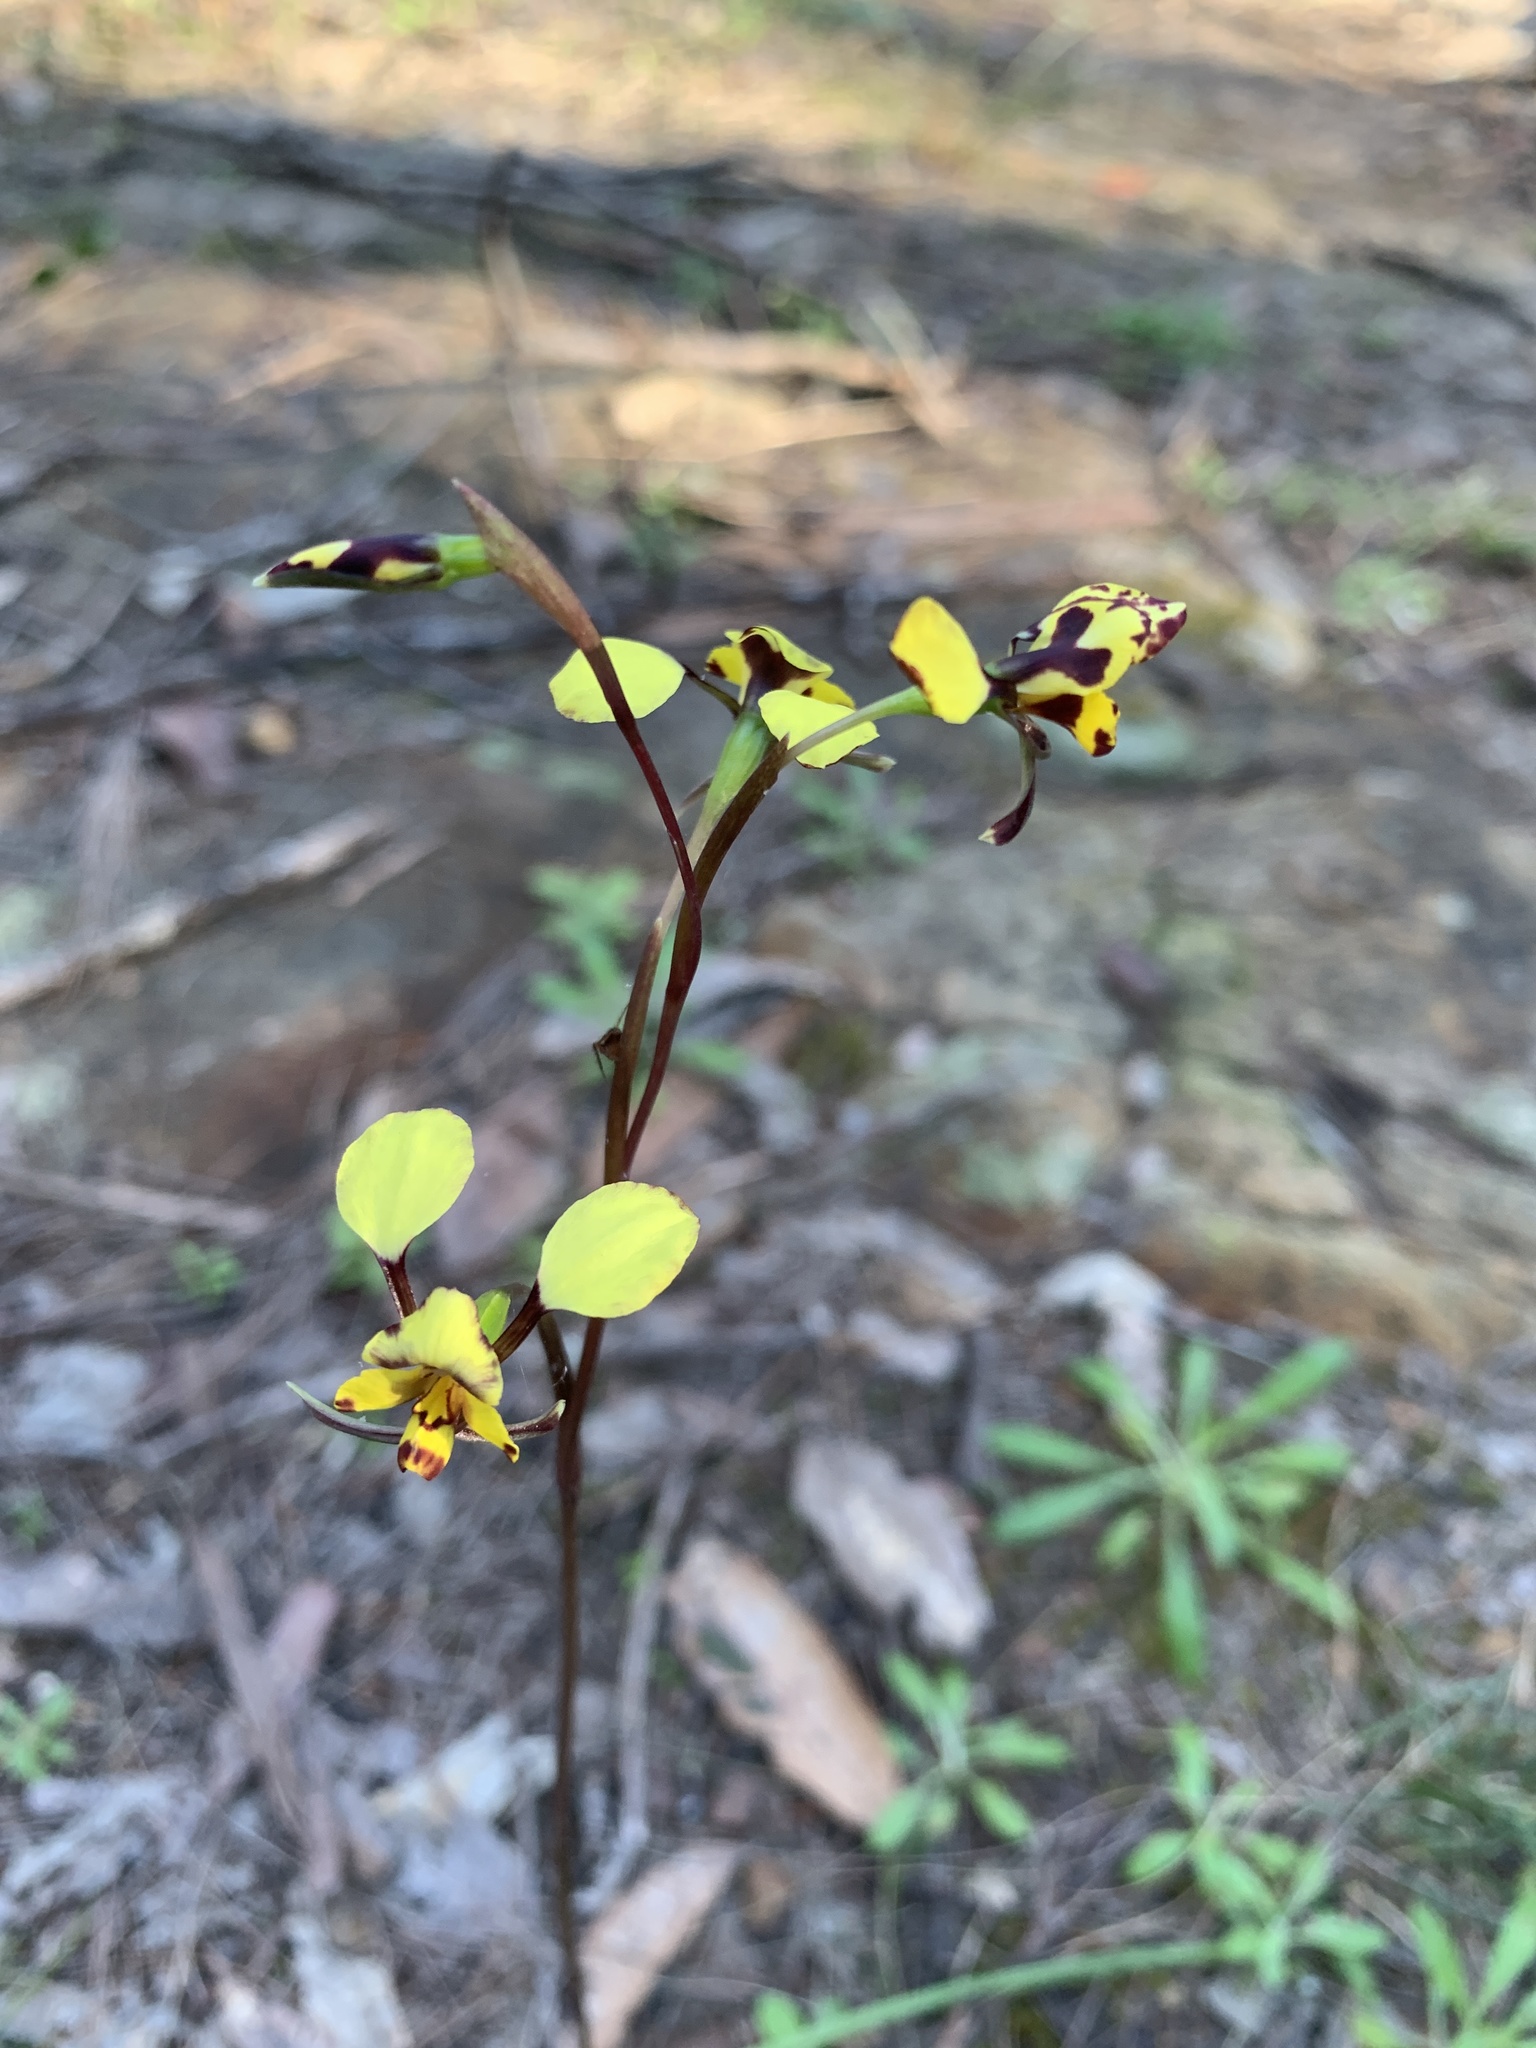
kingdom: Plantae
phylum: Tracheophyta
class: Liliopsida
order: Asparagales
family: Orchidaceae
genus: Diuris
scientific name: Diuris maculata
